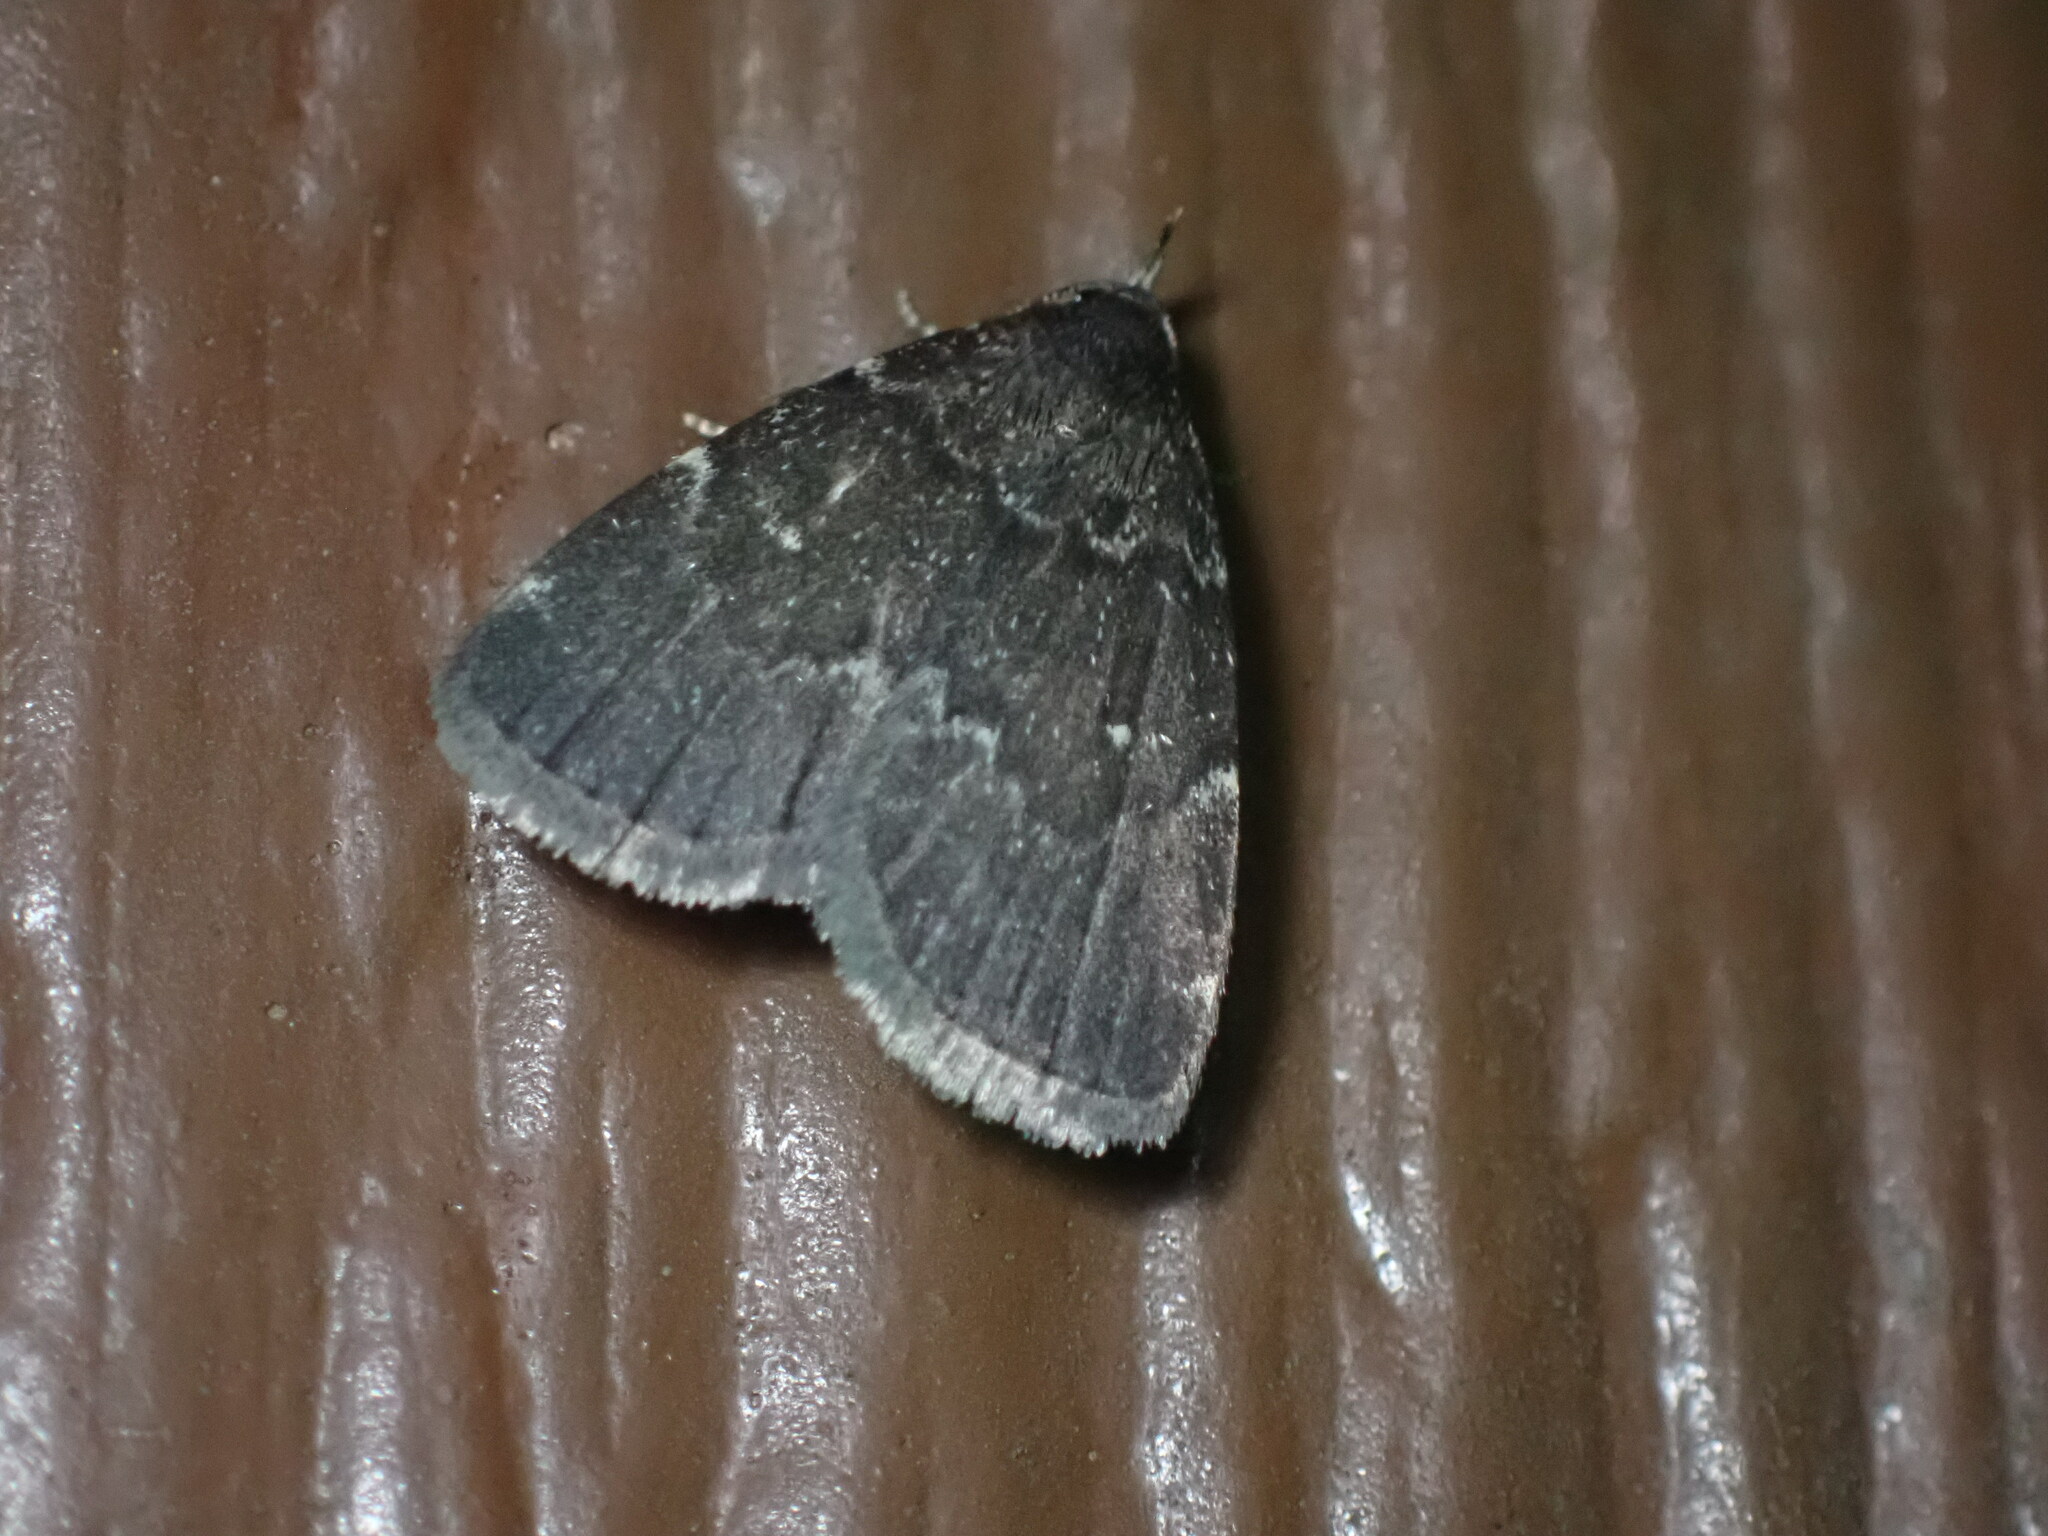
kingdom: Animalia
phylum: Arthropoda
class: Insecta
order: Lepidoptera
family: Erebidae
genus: Idia
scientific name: Idia julia
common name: Julia's idia moth
